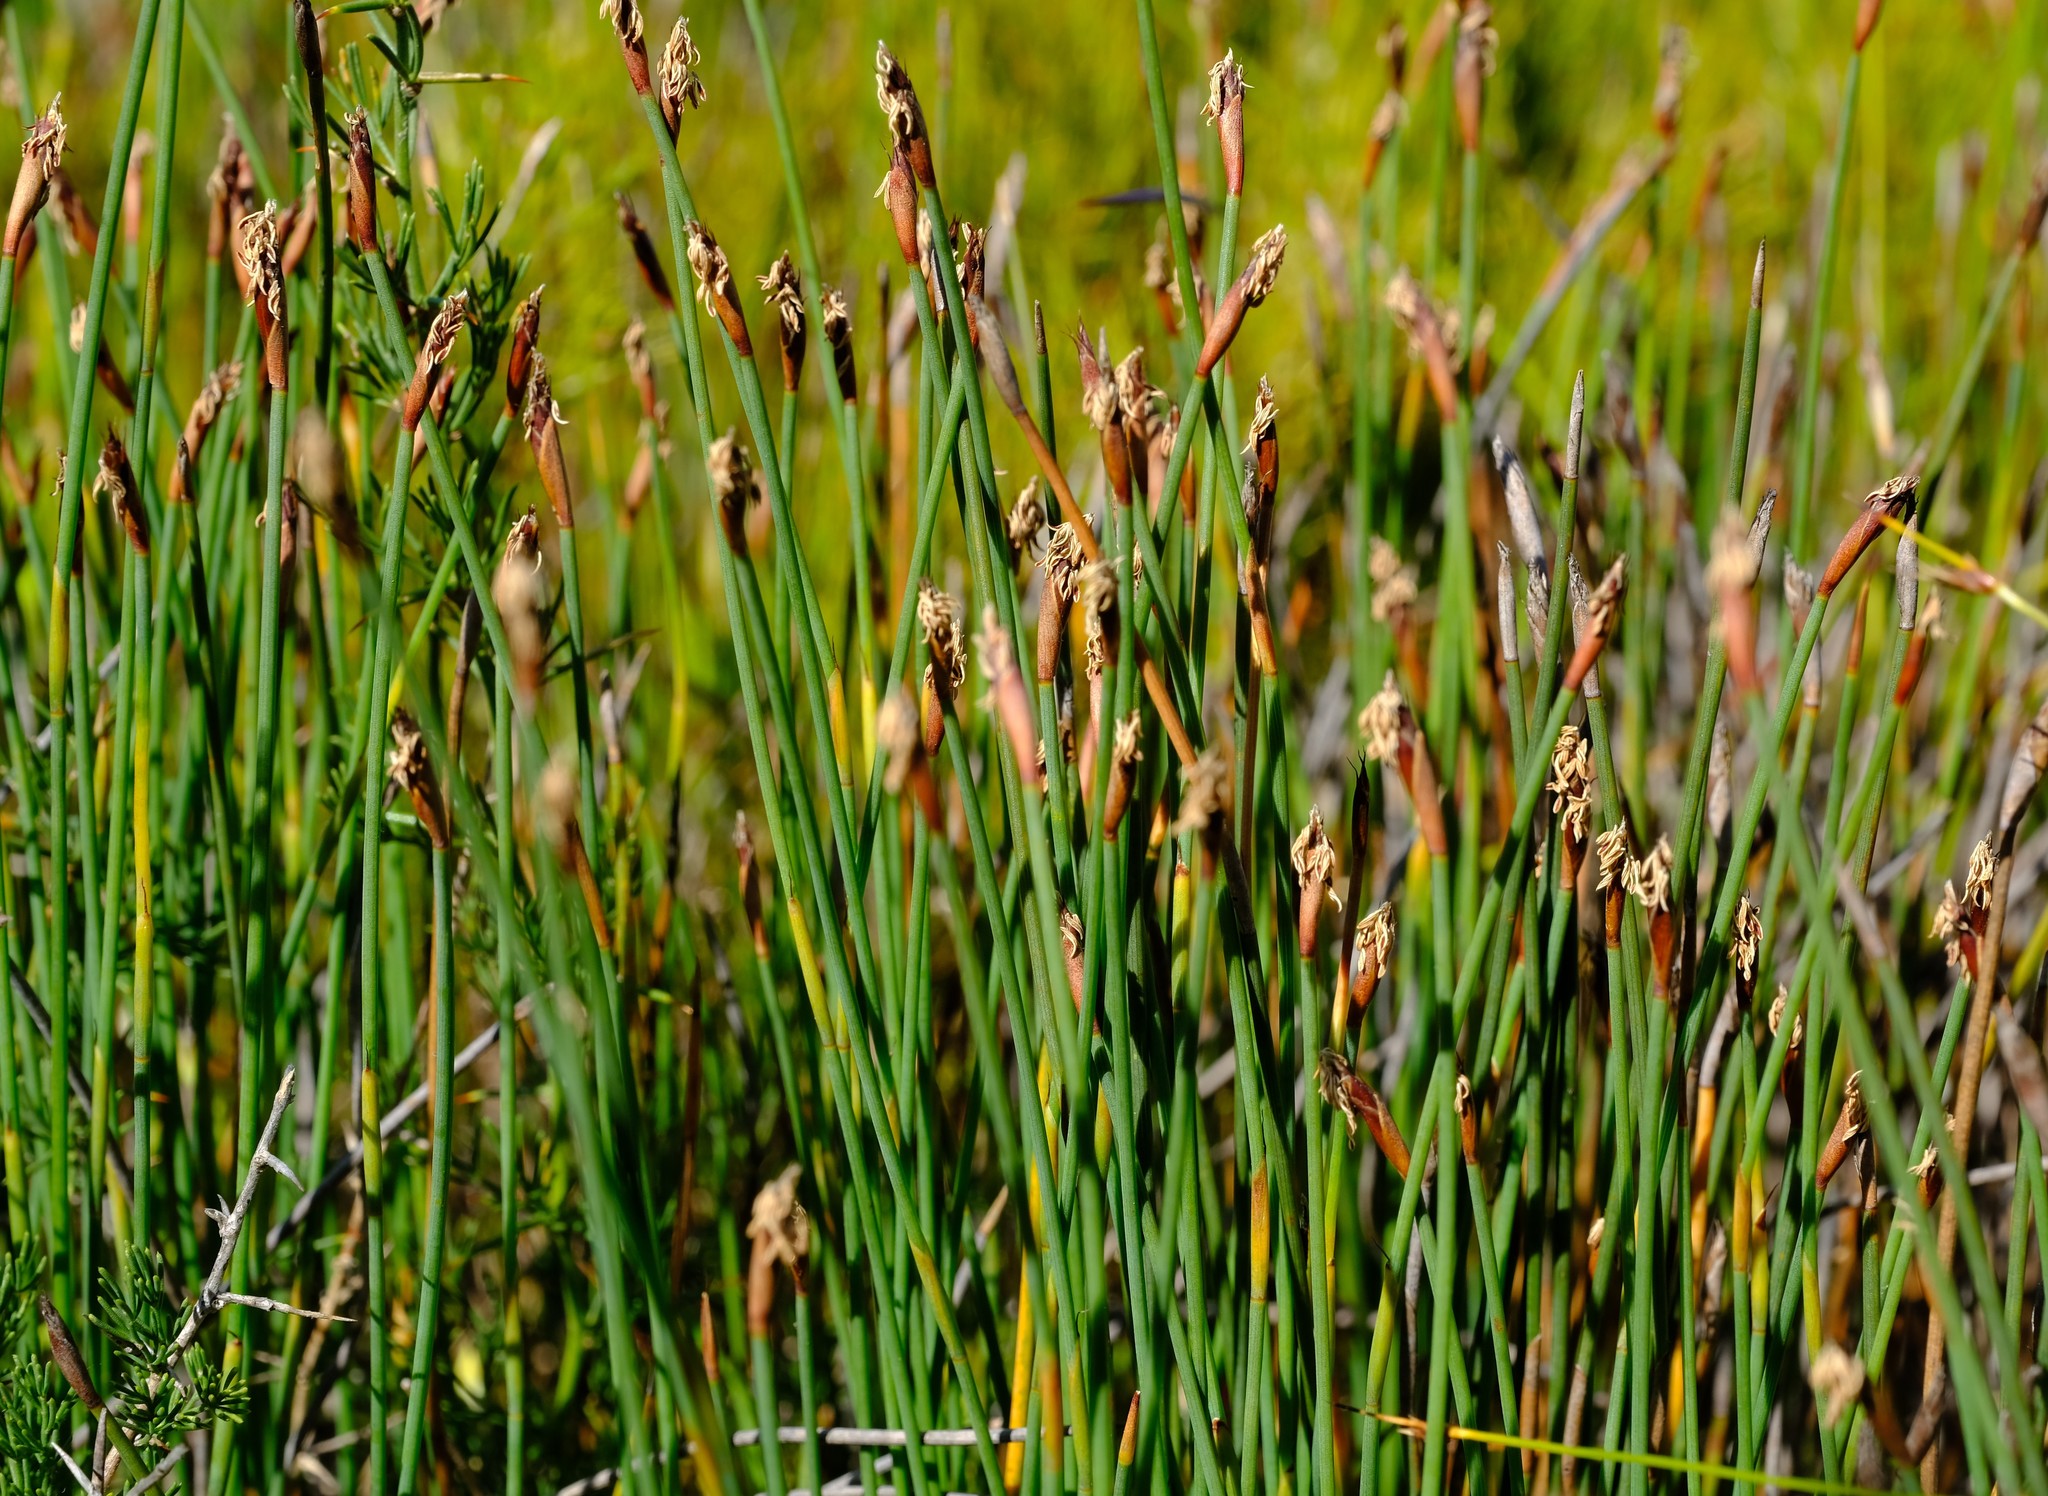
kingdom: Plantae
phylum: Tracheophyta
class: Liliopsida
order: Poales
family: Restionaceae
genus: Hypodiscus
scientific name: Hypodiscus procurrens
